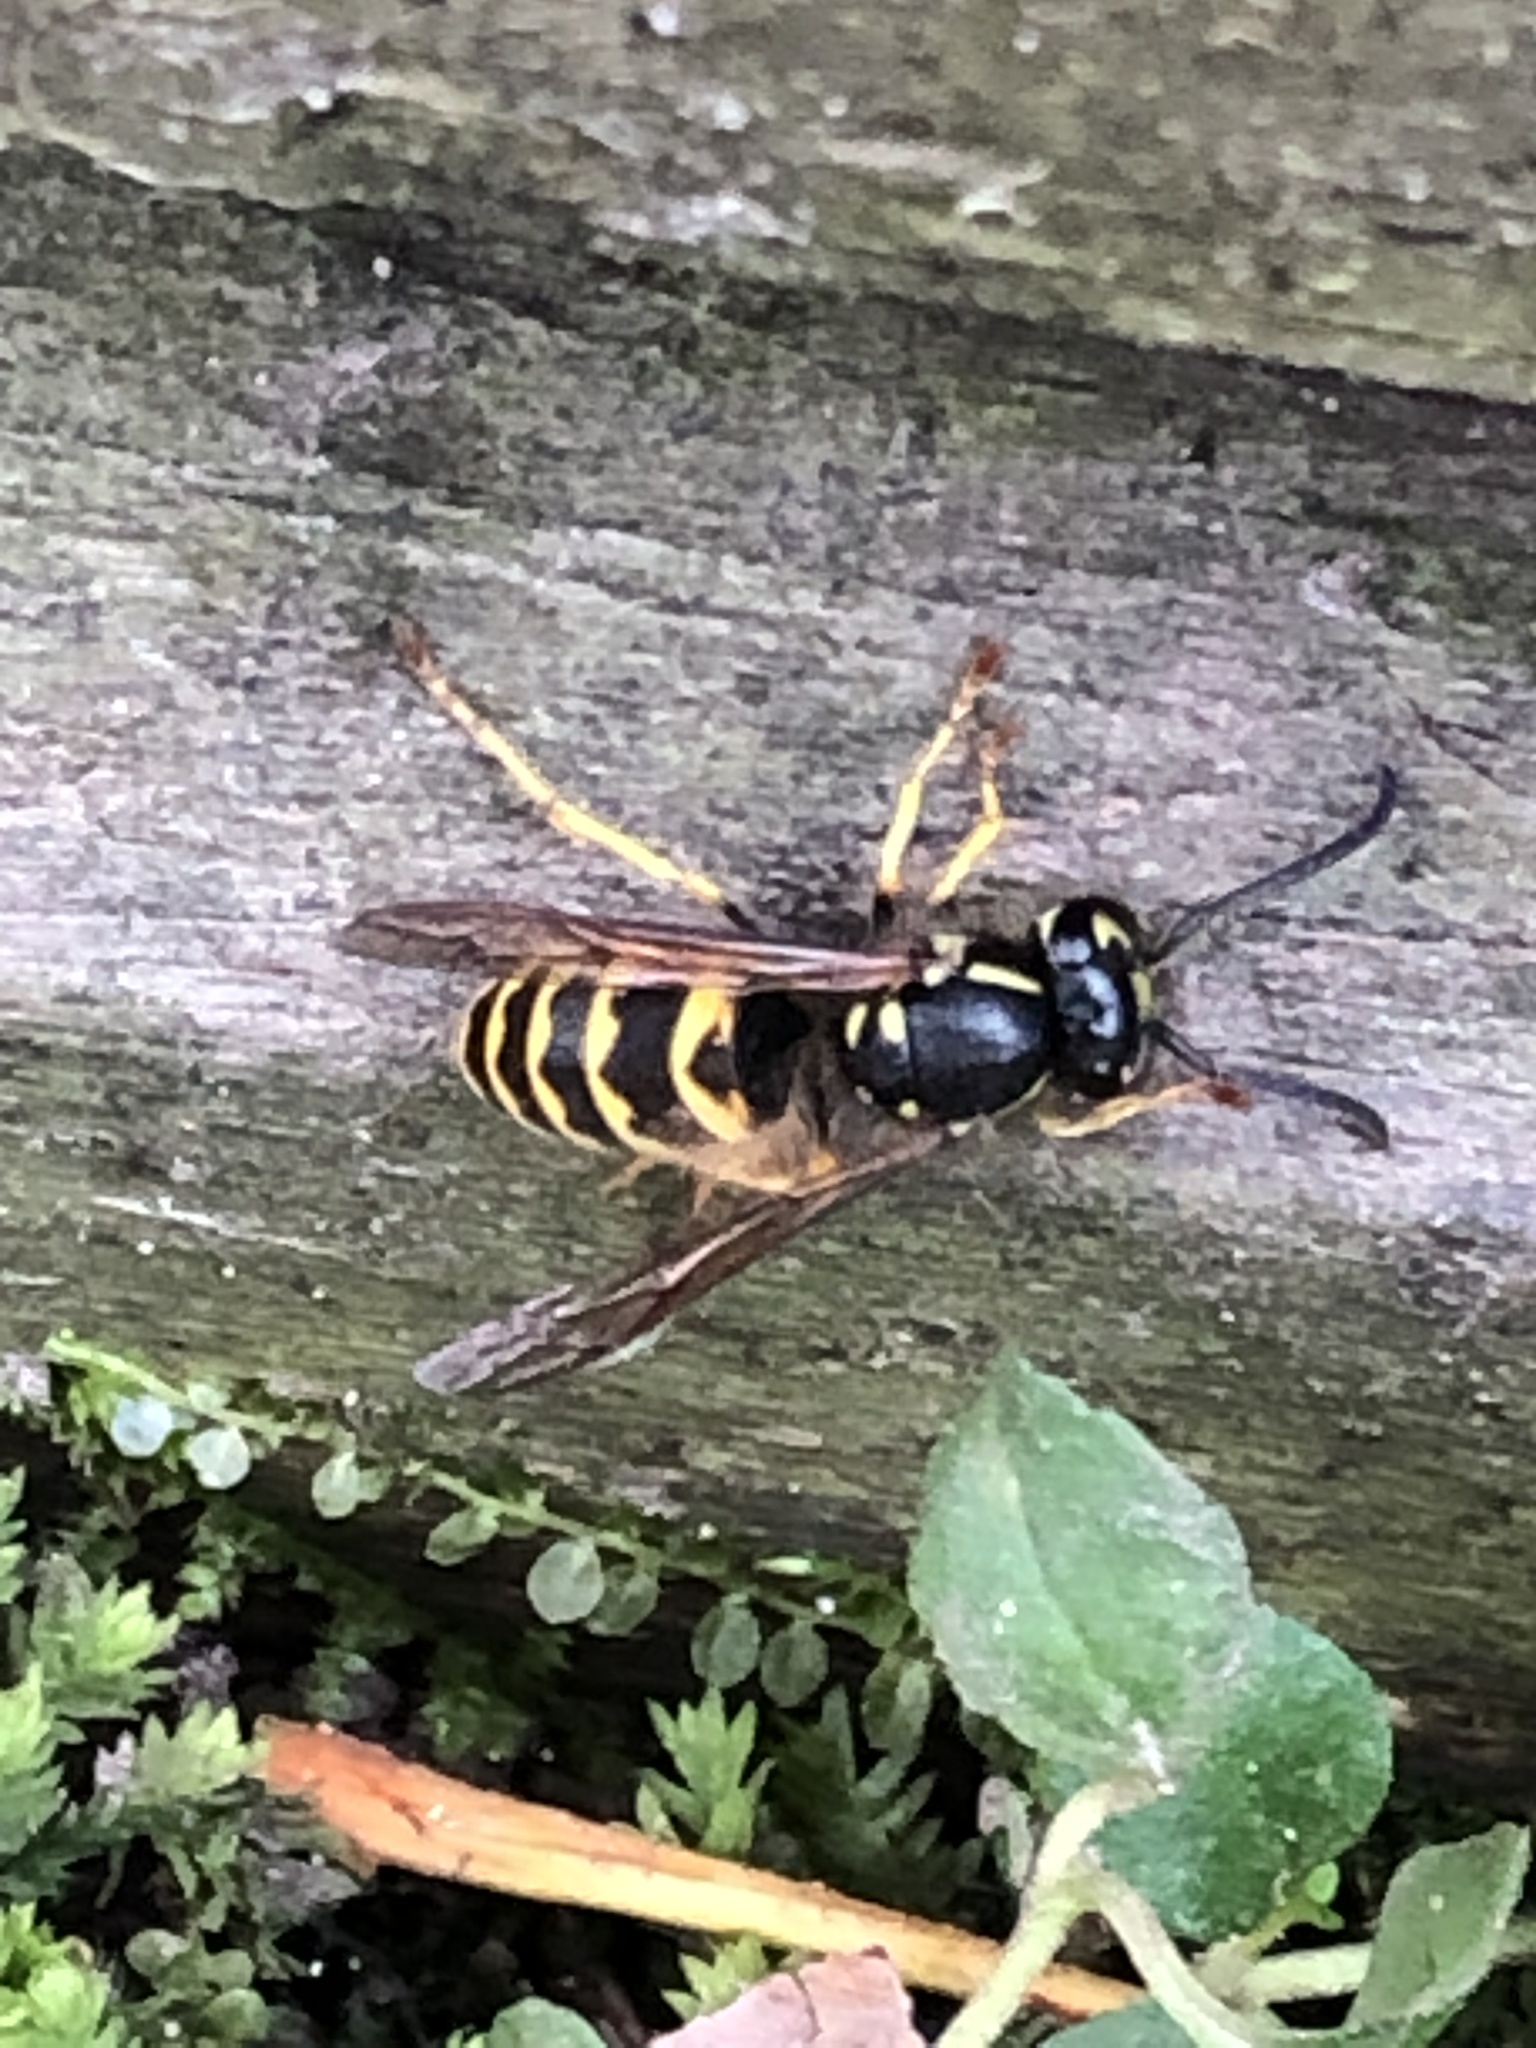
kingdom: Animalia
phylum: Arthropoda
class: Insecta
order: Hymenoptera
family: Vespidae
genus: Vespula
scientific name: Vespula alascensis
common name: Alaska yellowjacket
